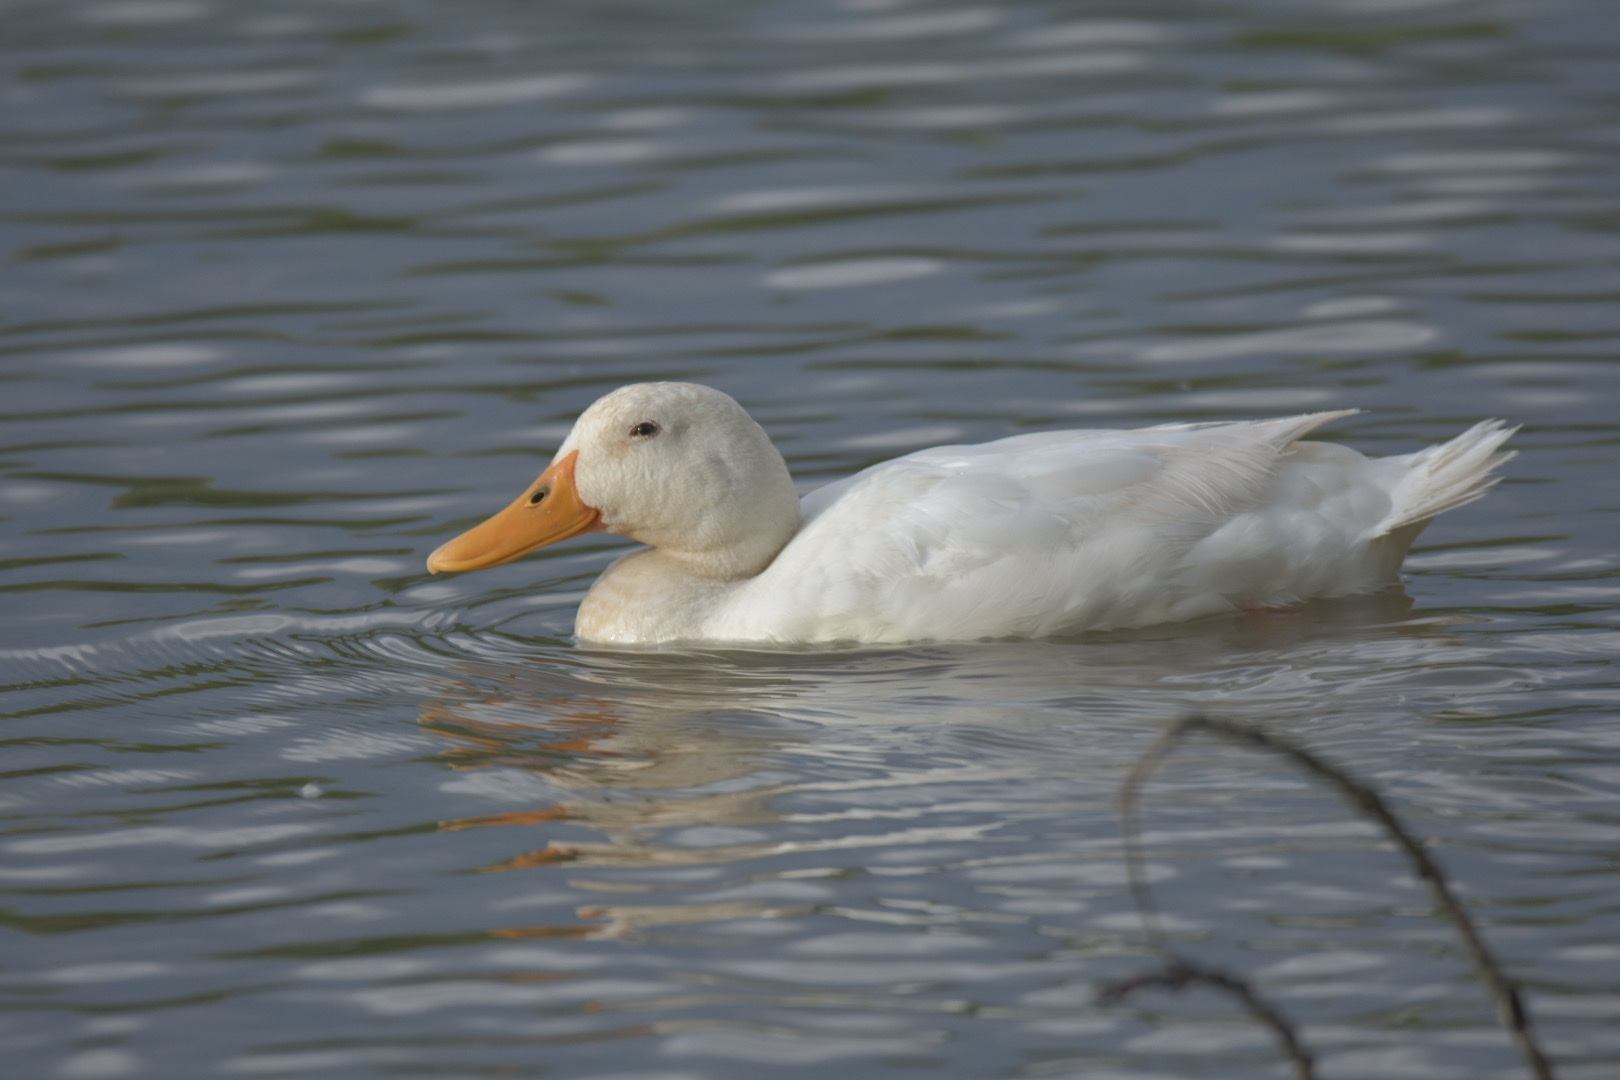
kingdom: Animalia
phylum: Chordata
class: Aves
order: Anseriformes
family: Anatidae
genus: Anas
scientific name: Anas platyrhynchos
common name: Mallard
